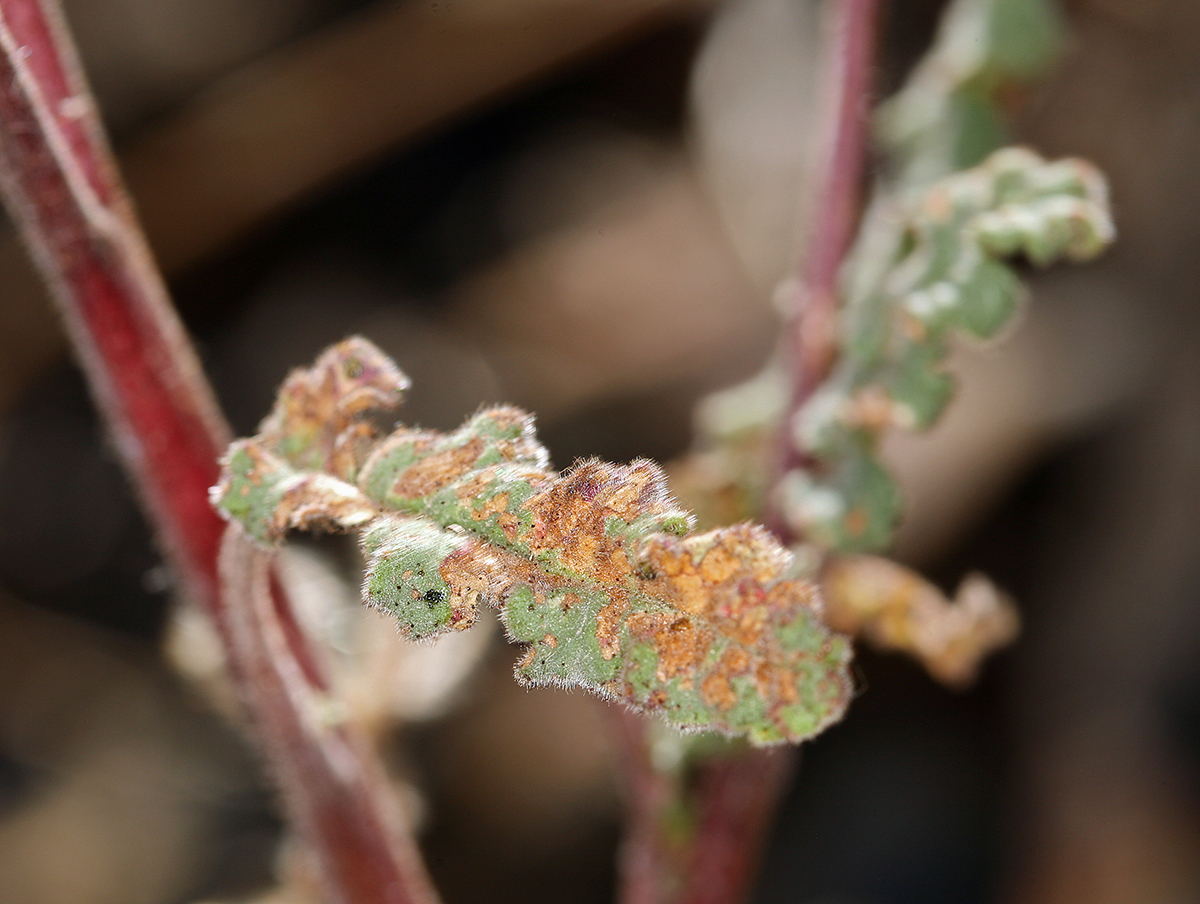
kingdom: Plantae
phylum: Tracheophyta
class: Magnoliopsida
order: Boraginales
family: Hydrophyllaceae
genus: Phacelia
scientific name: Phacelia crenulata
